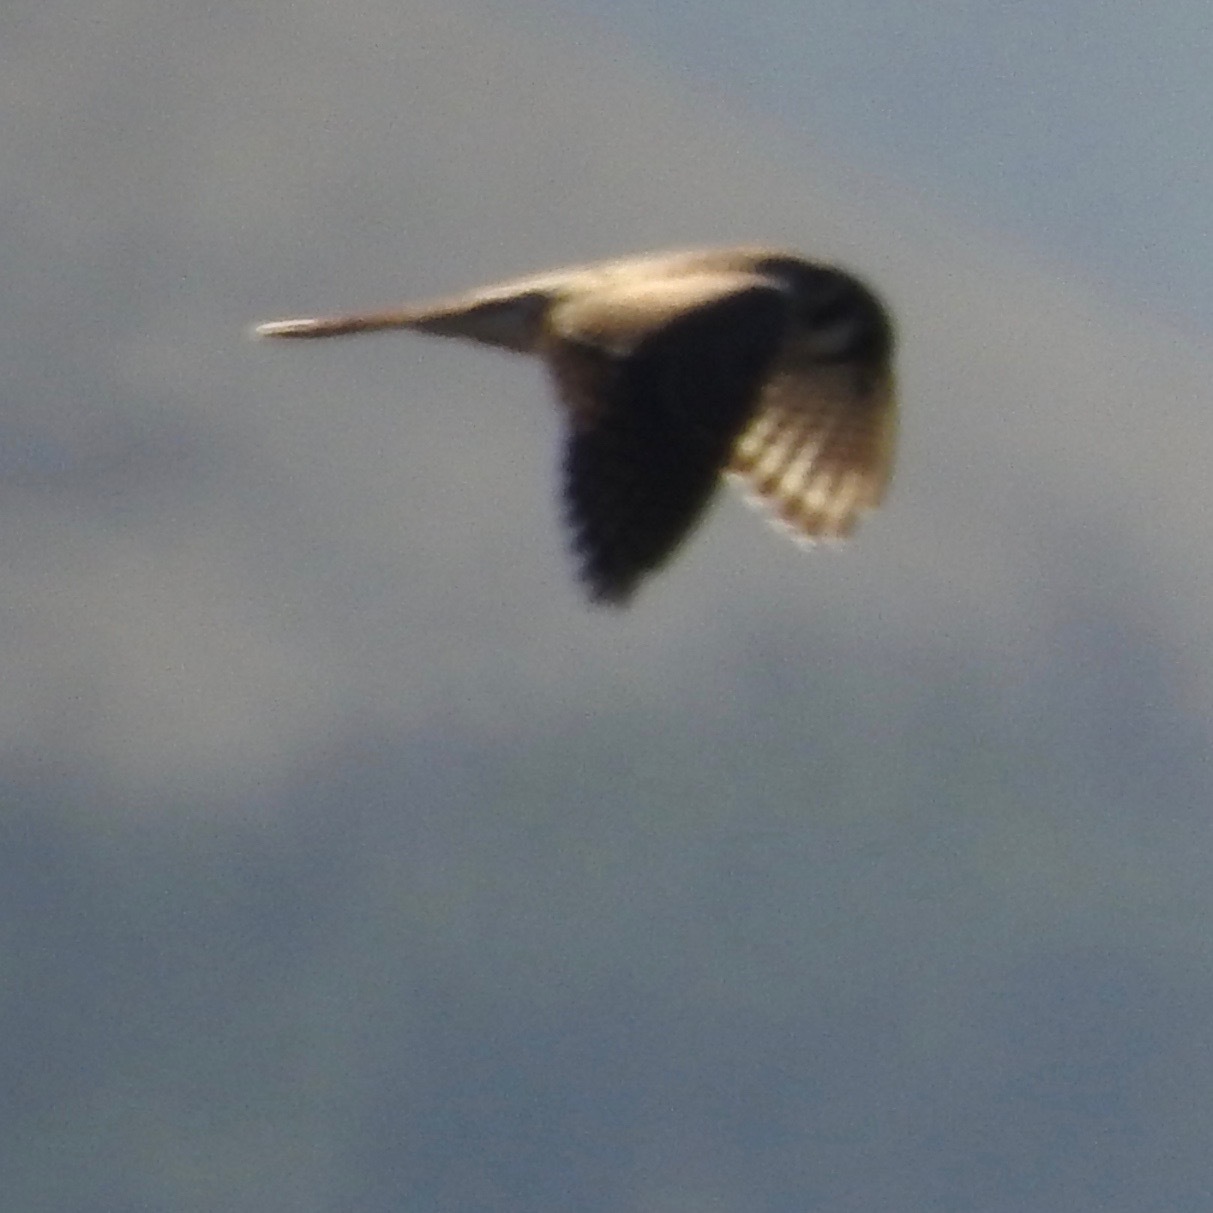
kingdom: Animalia
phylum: Chordata
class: Aves
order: Falconiformes
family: Falconidae
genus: Falco
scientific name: Falco sparverius
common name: American kestrel
